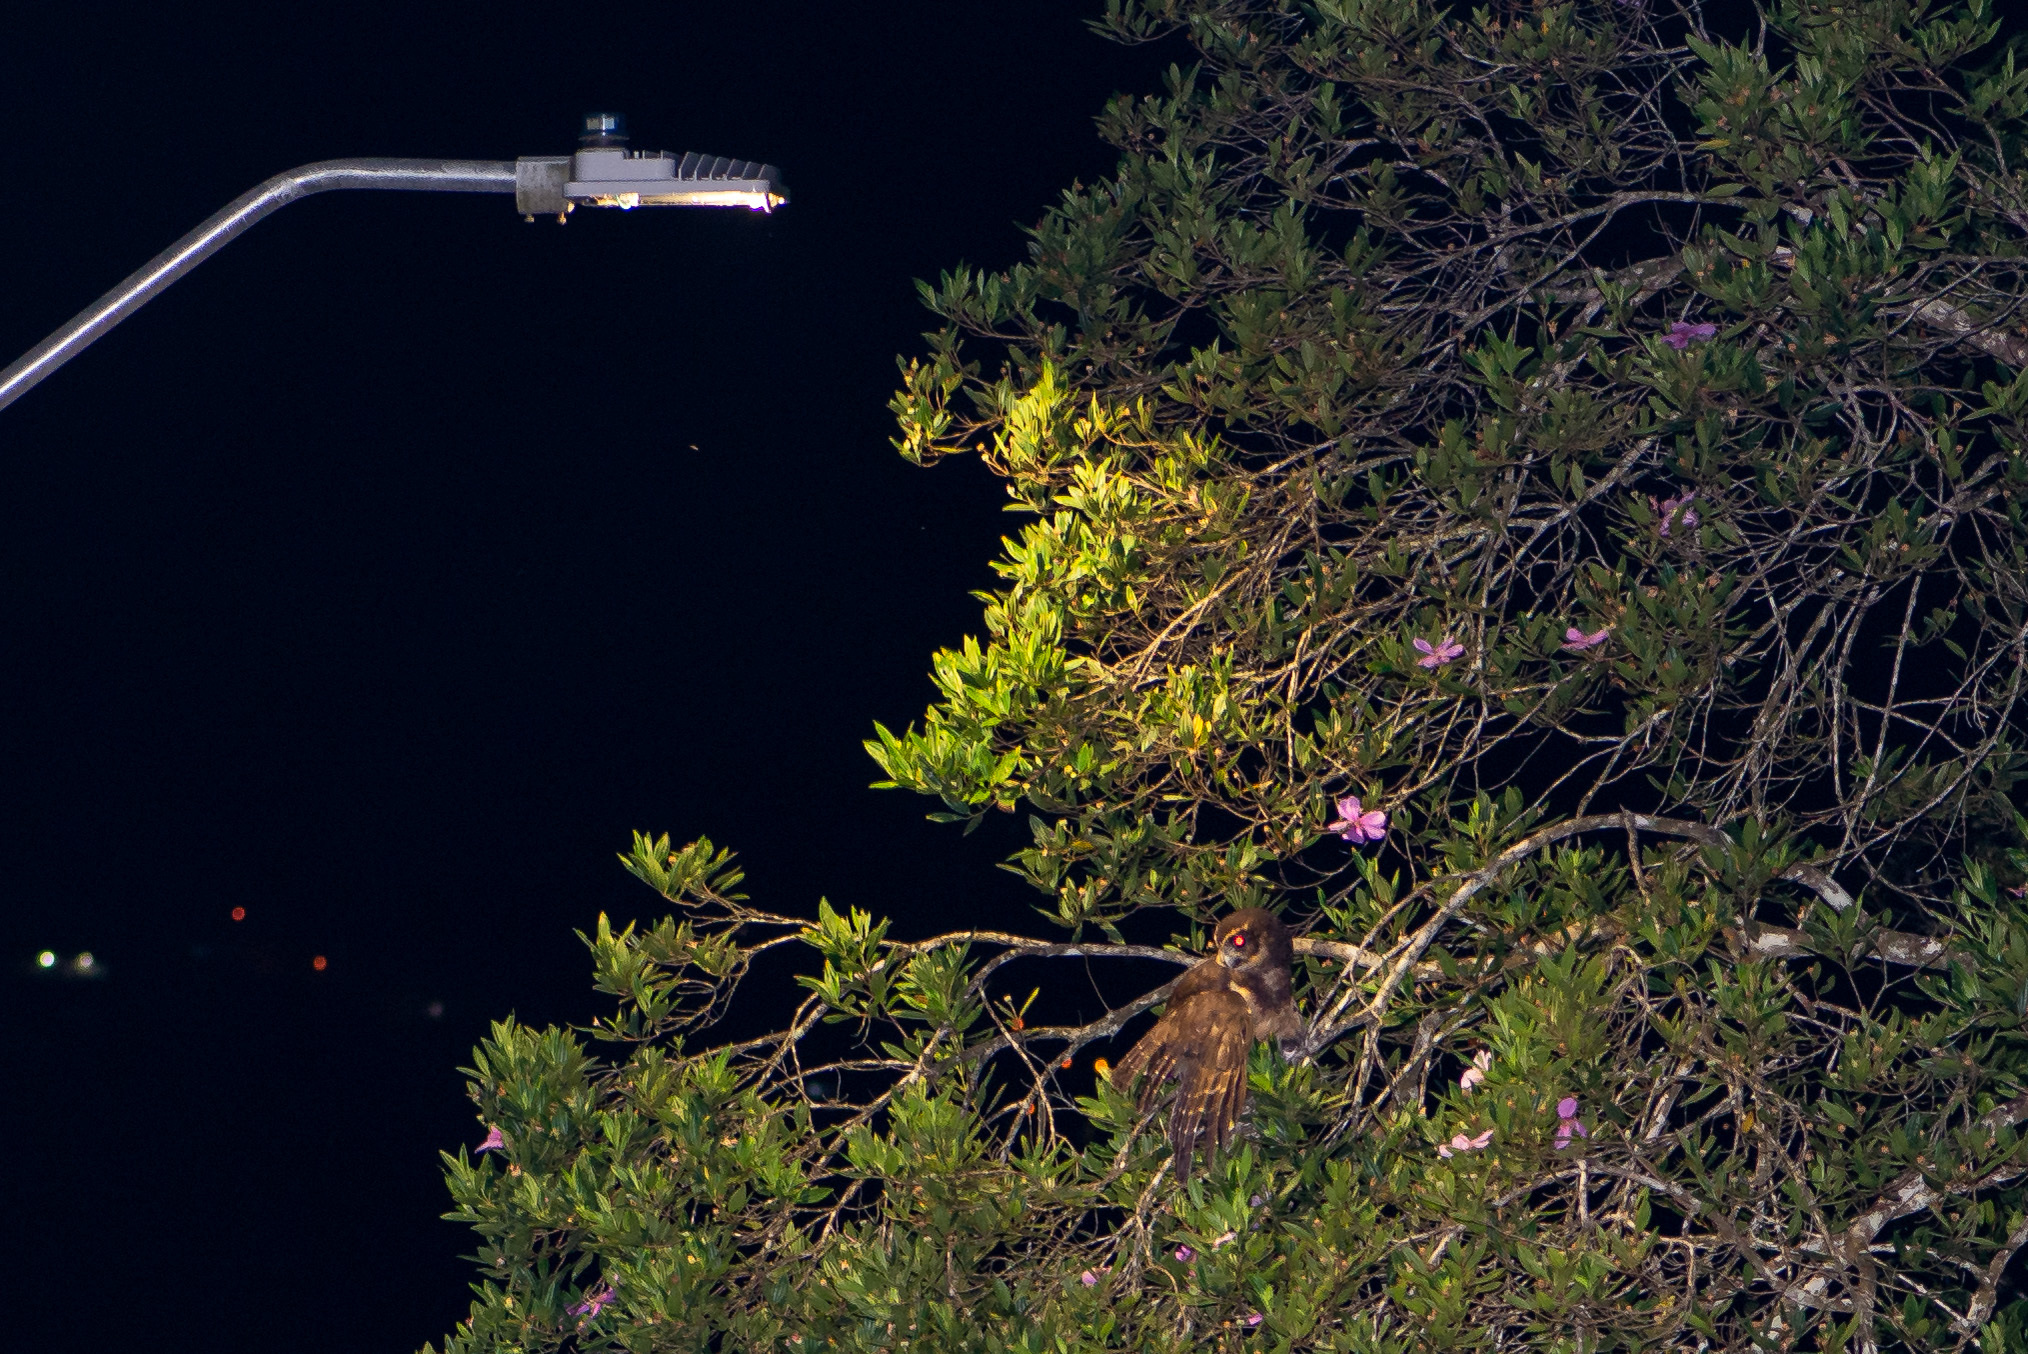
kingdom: Animalia
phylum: Chordata
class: Aves
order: Strigiformes
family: Strigidae
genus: Pulsatrix
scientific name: Pulsatrix koeniswaldiana
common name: Tawny-browed owl
